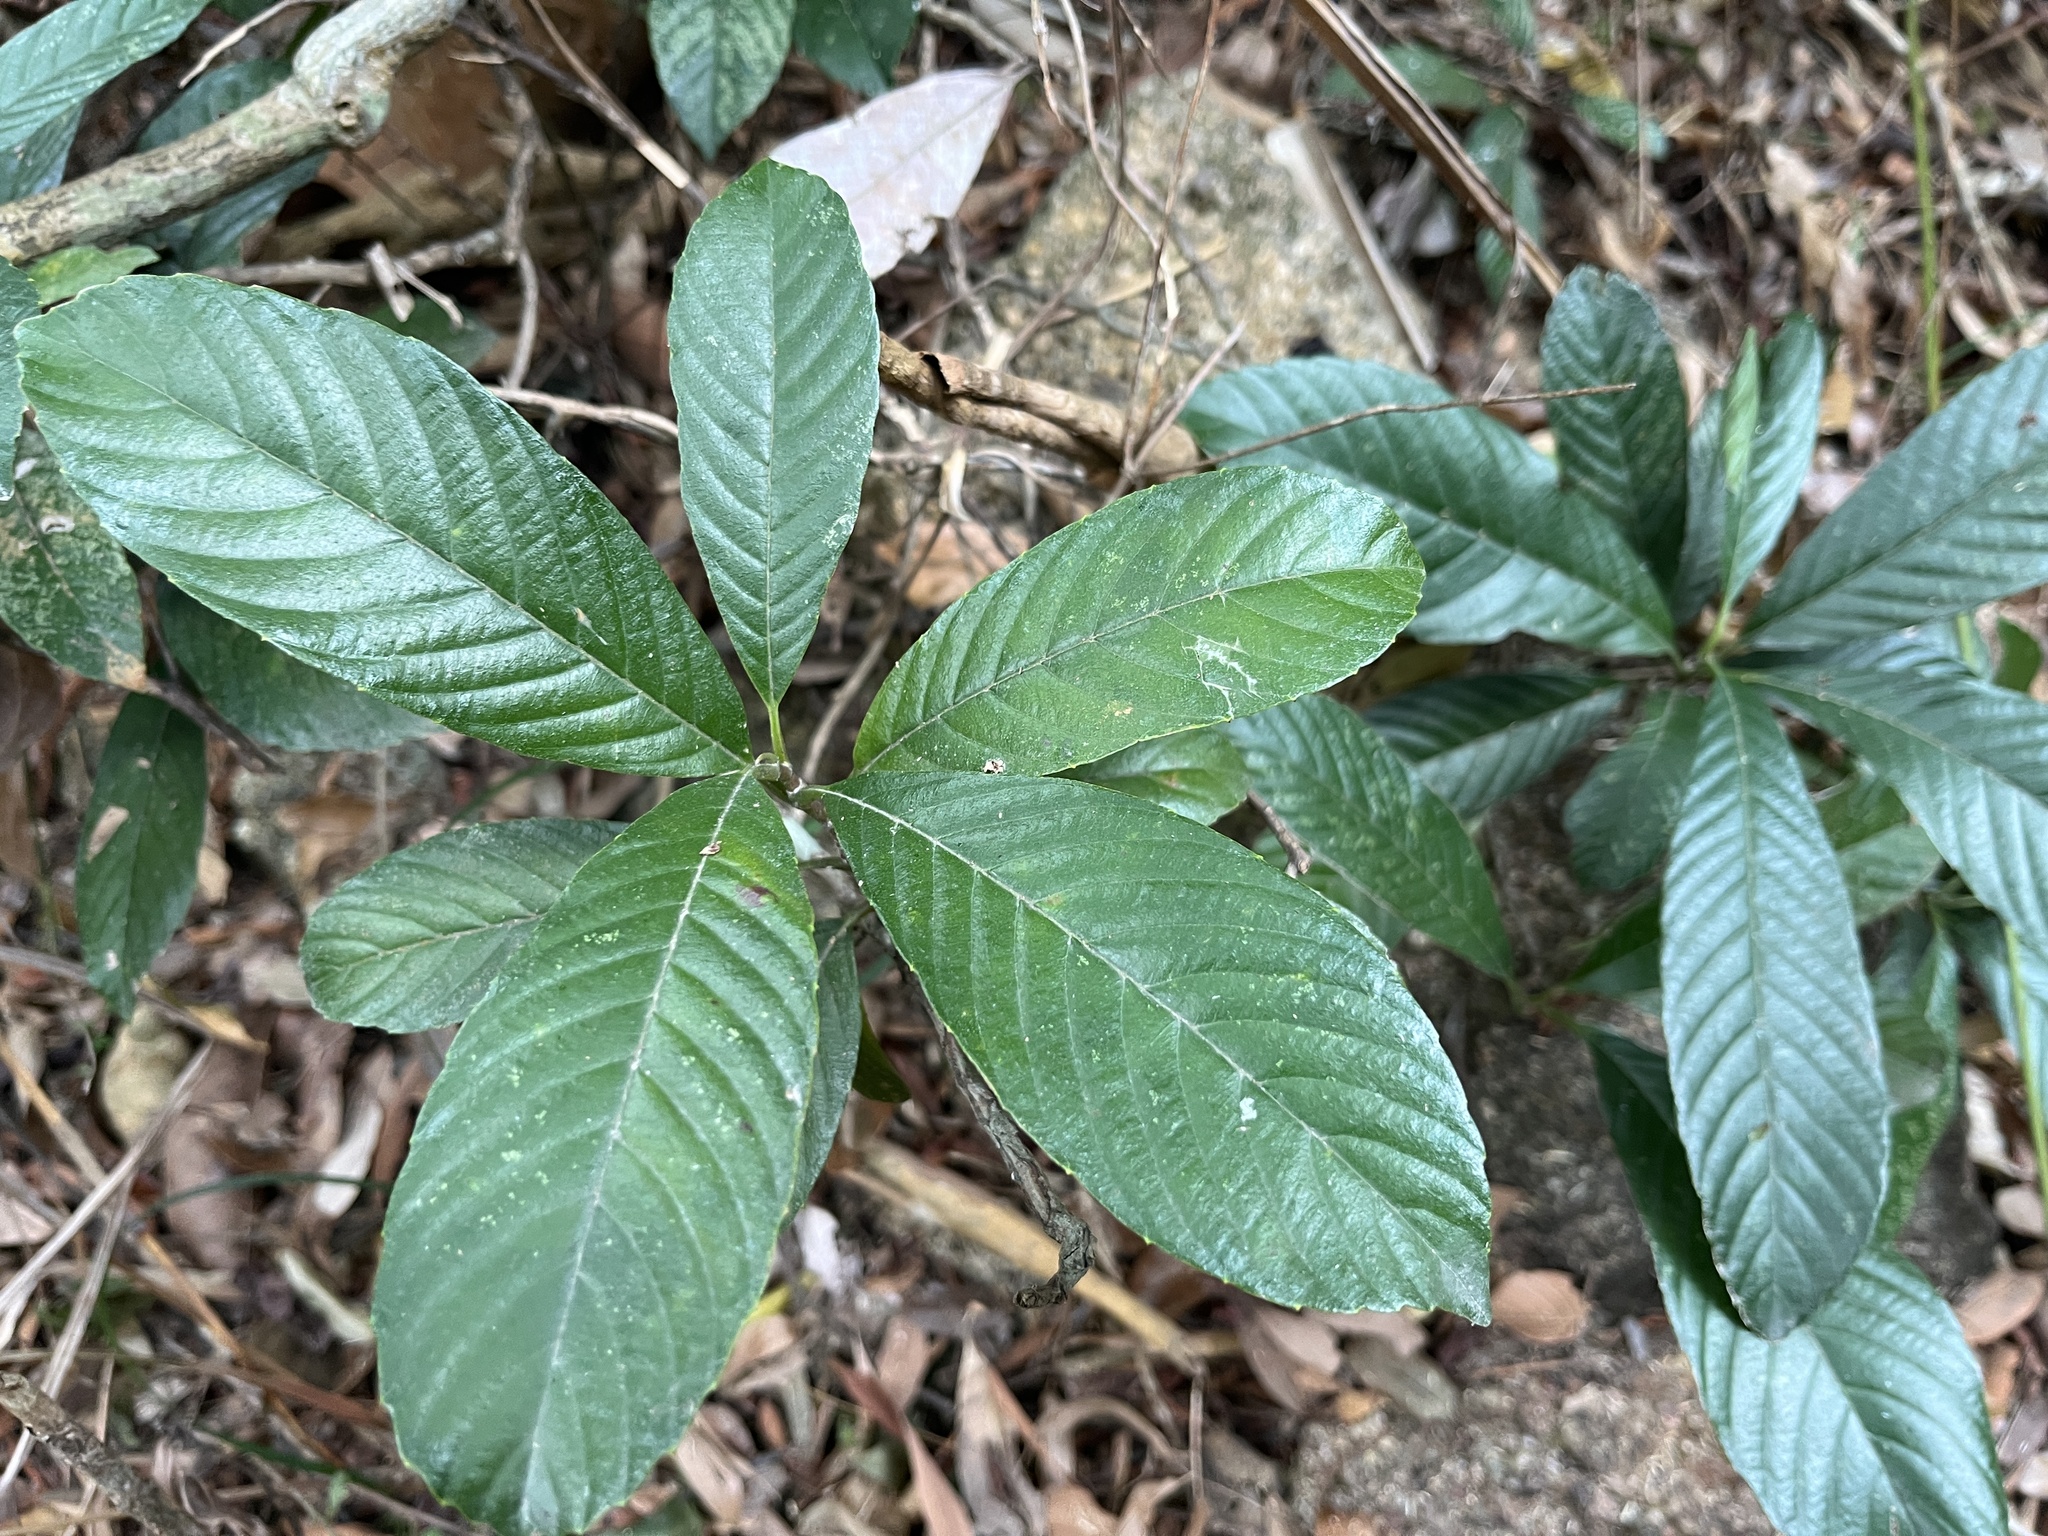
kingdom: Plantae
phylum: Tracheophyta
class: Magnoliopsida
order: Dilleniales
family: Dilleniaceae
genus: Tetracera
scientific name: Tetracera sarmentosa
